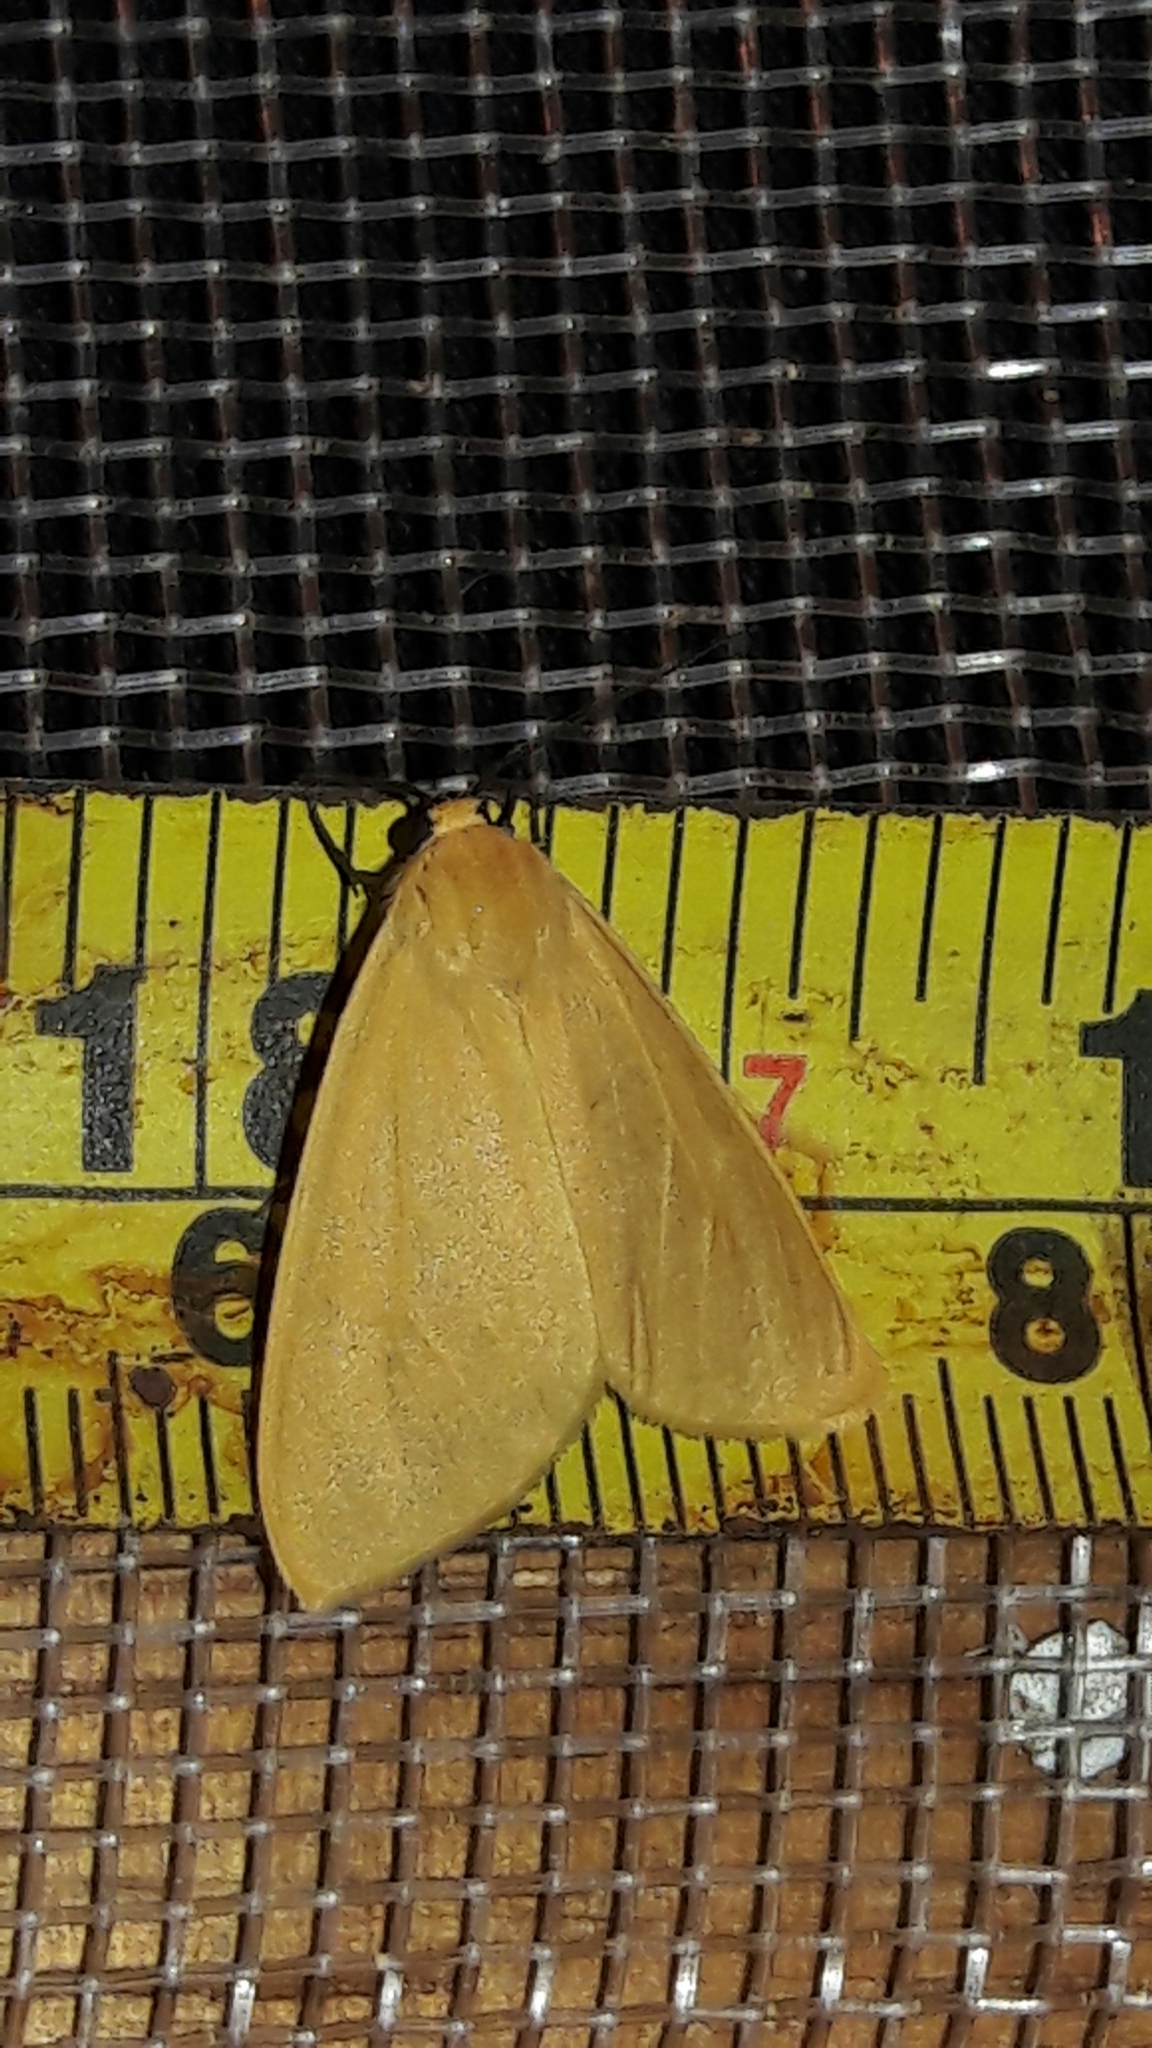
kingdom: Animalia
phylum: Arthropoda
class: Insecta
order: Lepidoptera
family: Erebidae
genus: Pareuchaetes
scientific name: Pareuchaetes aurata
